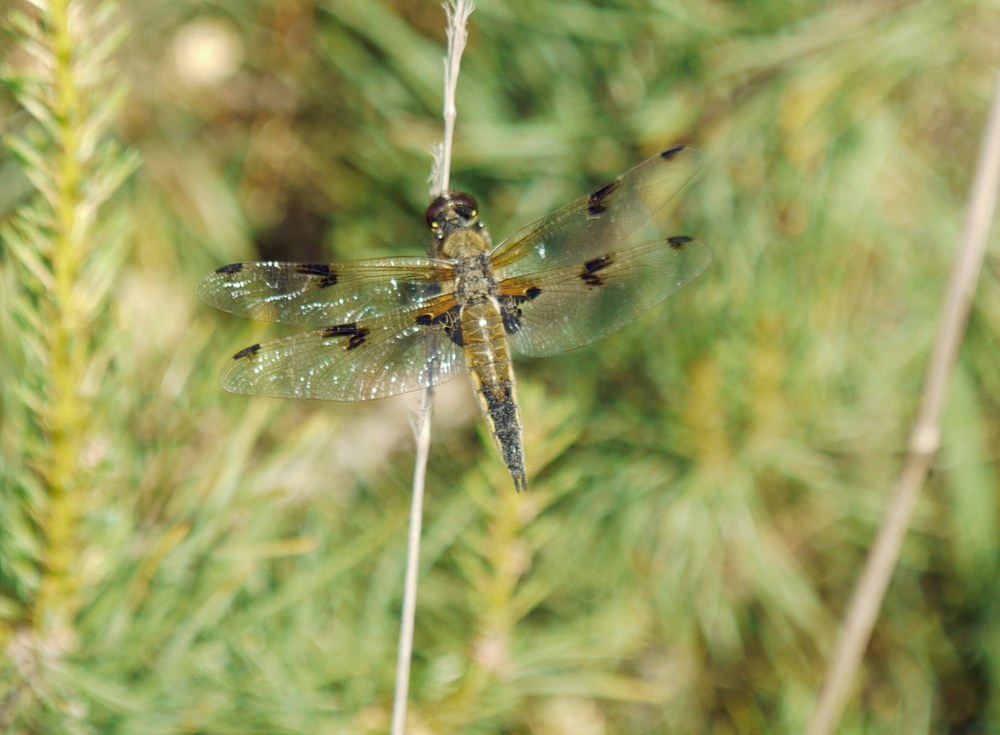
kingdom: Animalia
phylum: Arthropoda
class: Insecta
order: Odonata
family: Libellulidae
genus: Libellula
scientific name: Libellula quadrimaculata
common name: Four-spotted chaser
